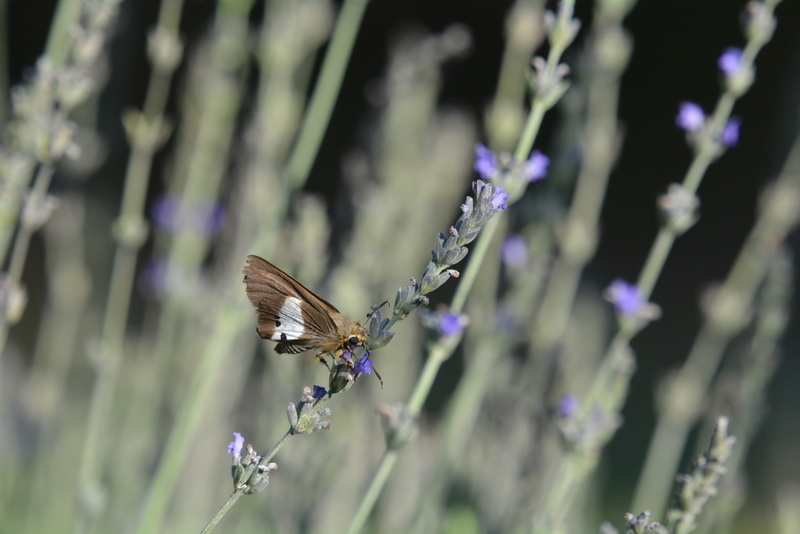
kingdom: Animalia
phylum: Arthropoda
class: Insecta
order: Lepidoptera
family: Hesperiidae
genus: Coeliades
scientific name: Coeliades pisistratus
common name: Two-pip policeman
